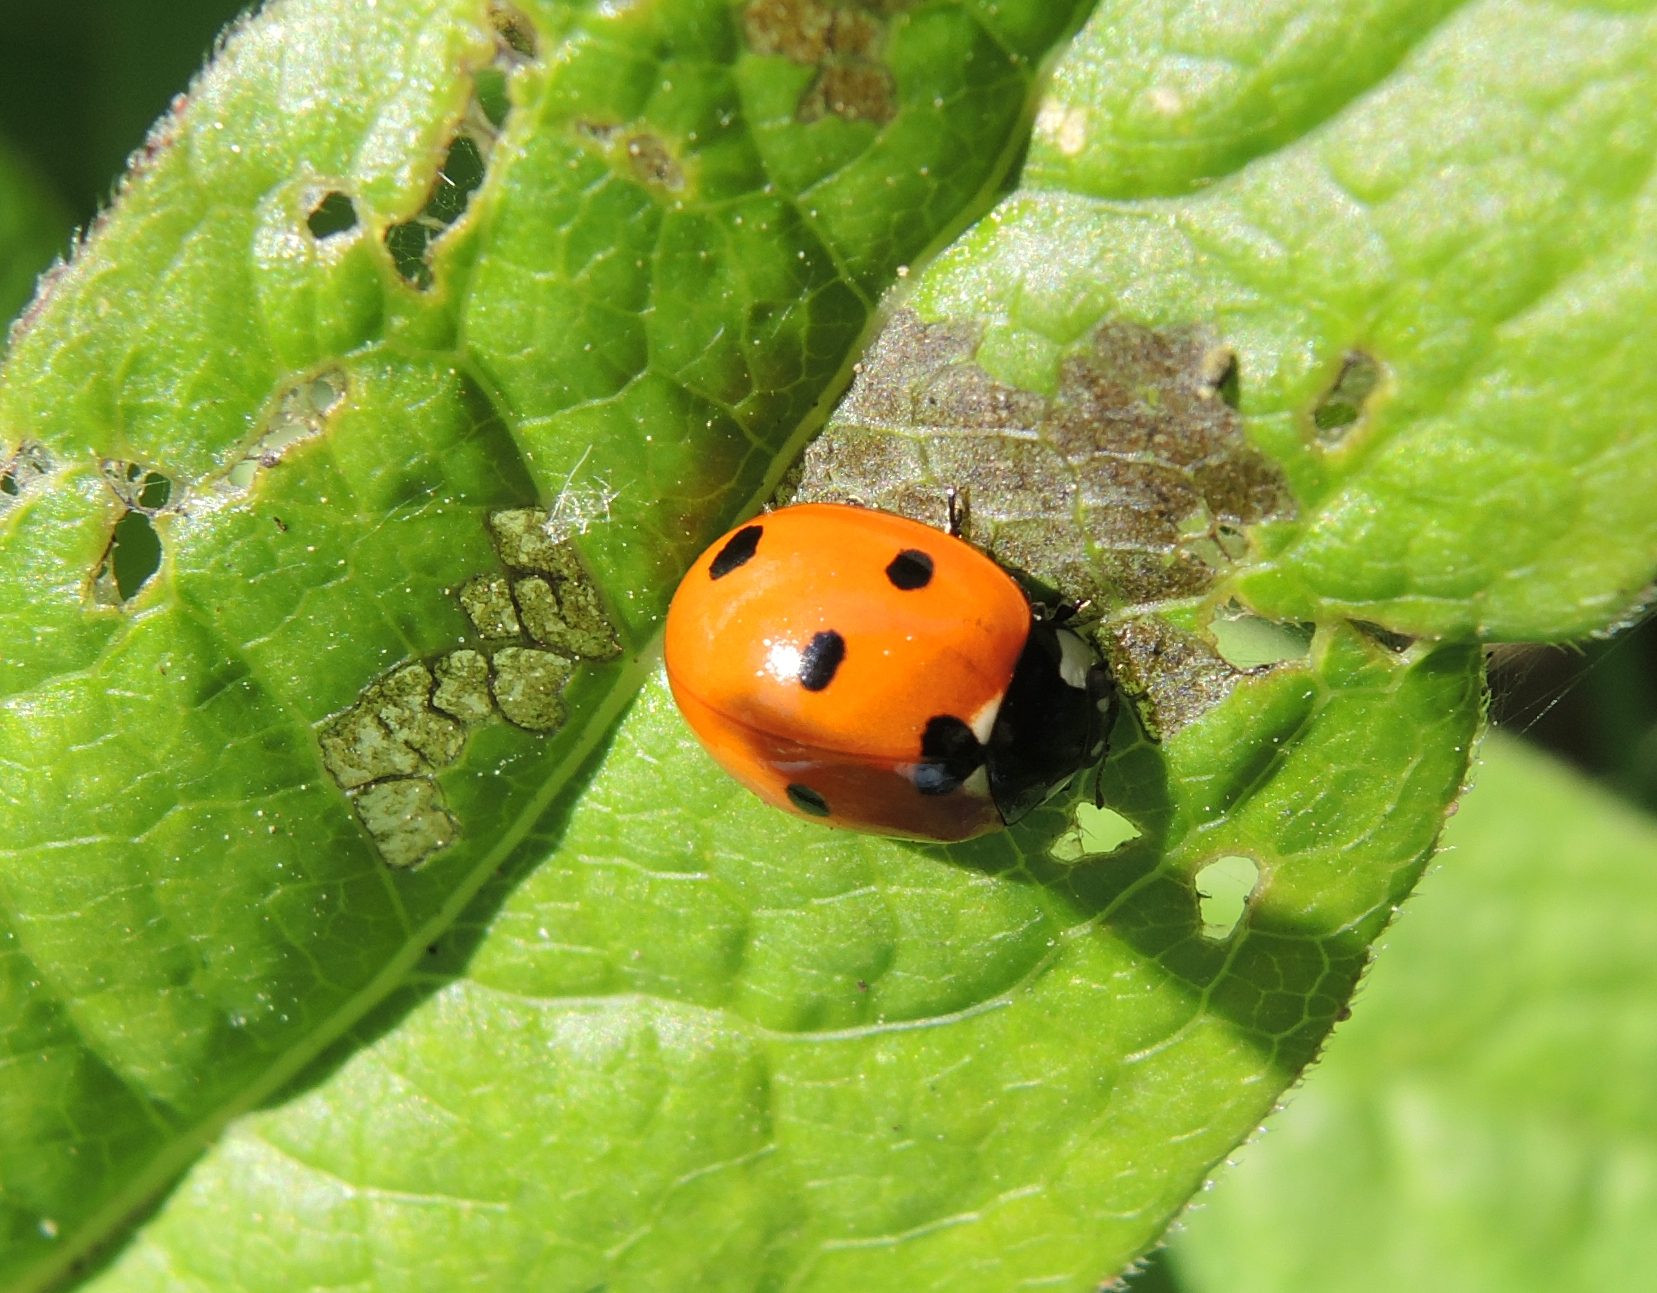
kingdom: Animalia
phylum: Arthropoda
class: Insecta
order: Coleoptera
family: Coccinellidae
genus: Coccinella
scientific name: Coccinella septempunctata
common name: Sevenspotted lady beetle
